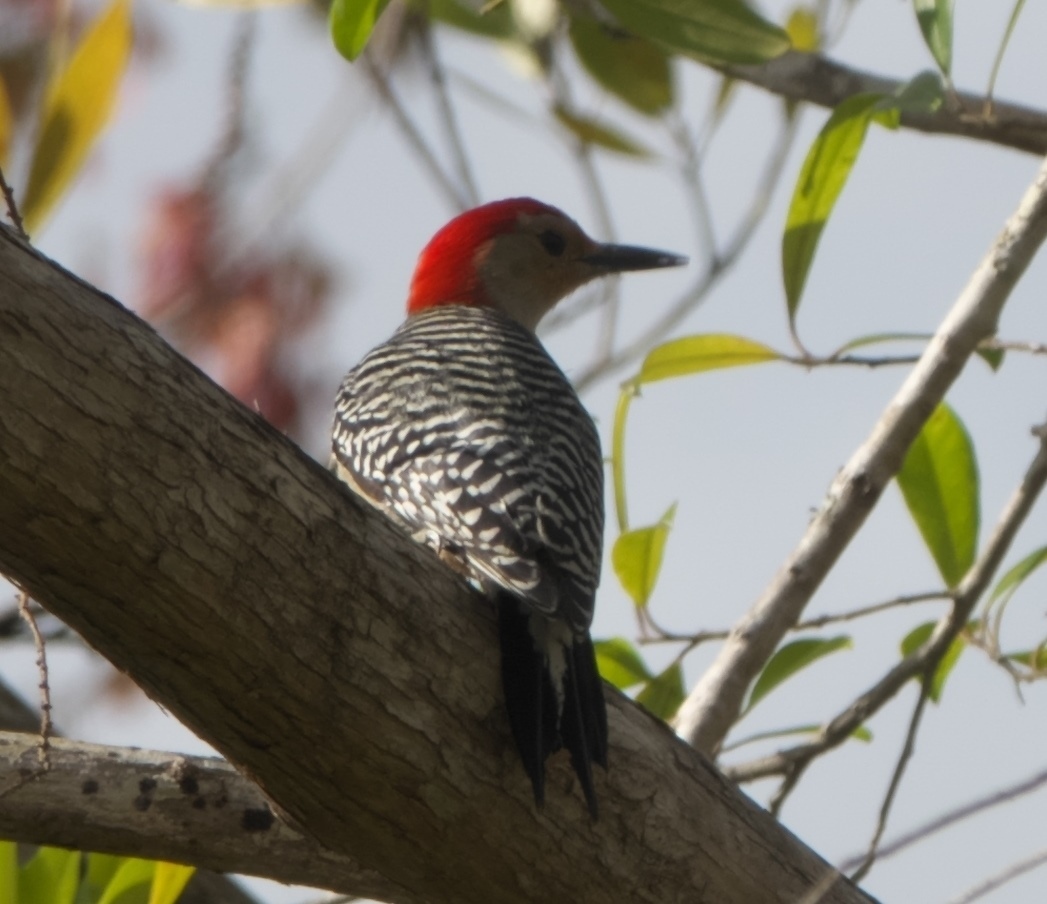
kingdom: Animalia
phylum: Chordata
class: Aves
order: Piciformes
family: Picidae
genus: Melanerpes
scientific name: Melanerpes carolinus
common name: Red-bellied woodpecker
